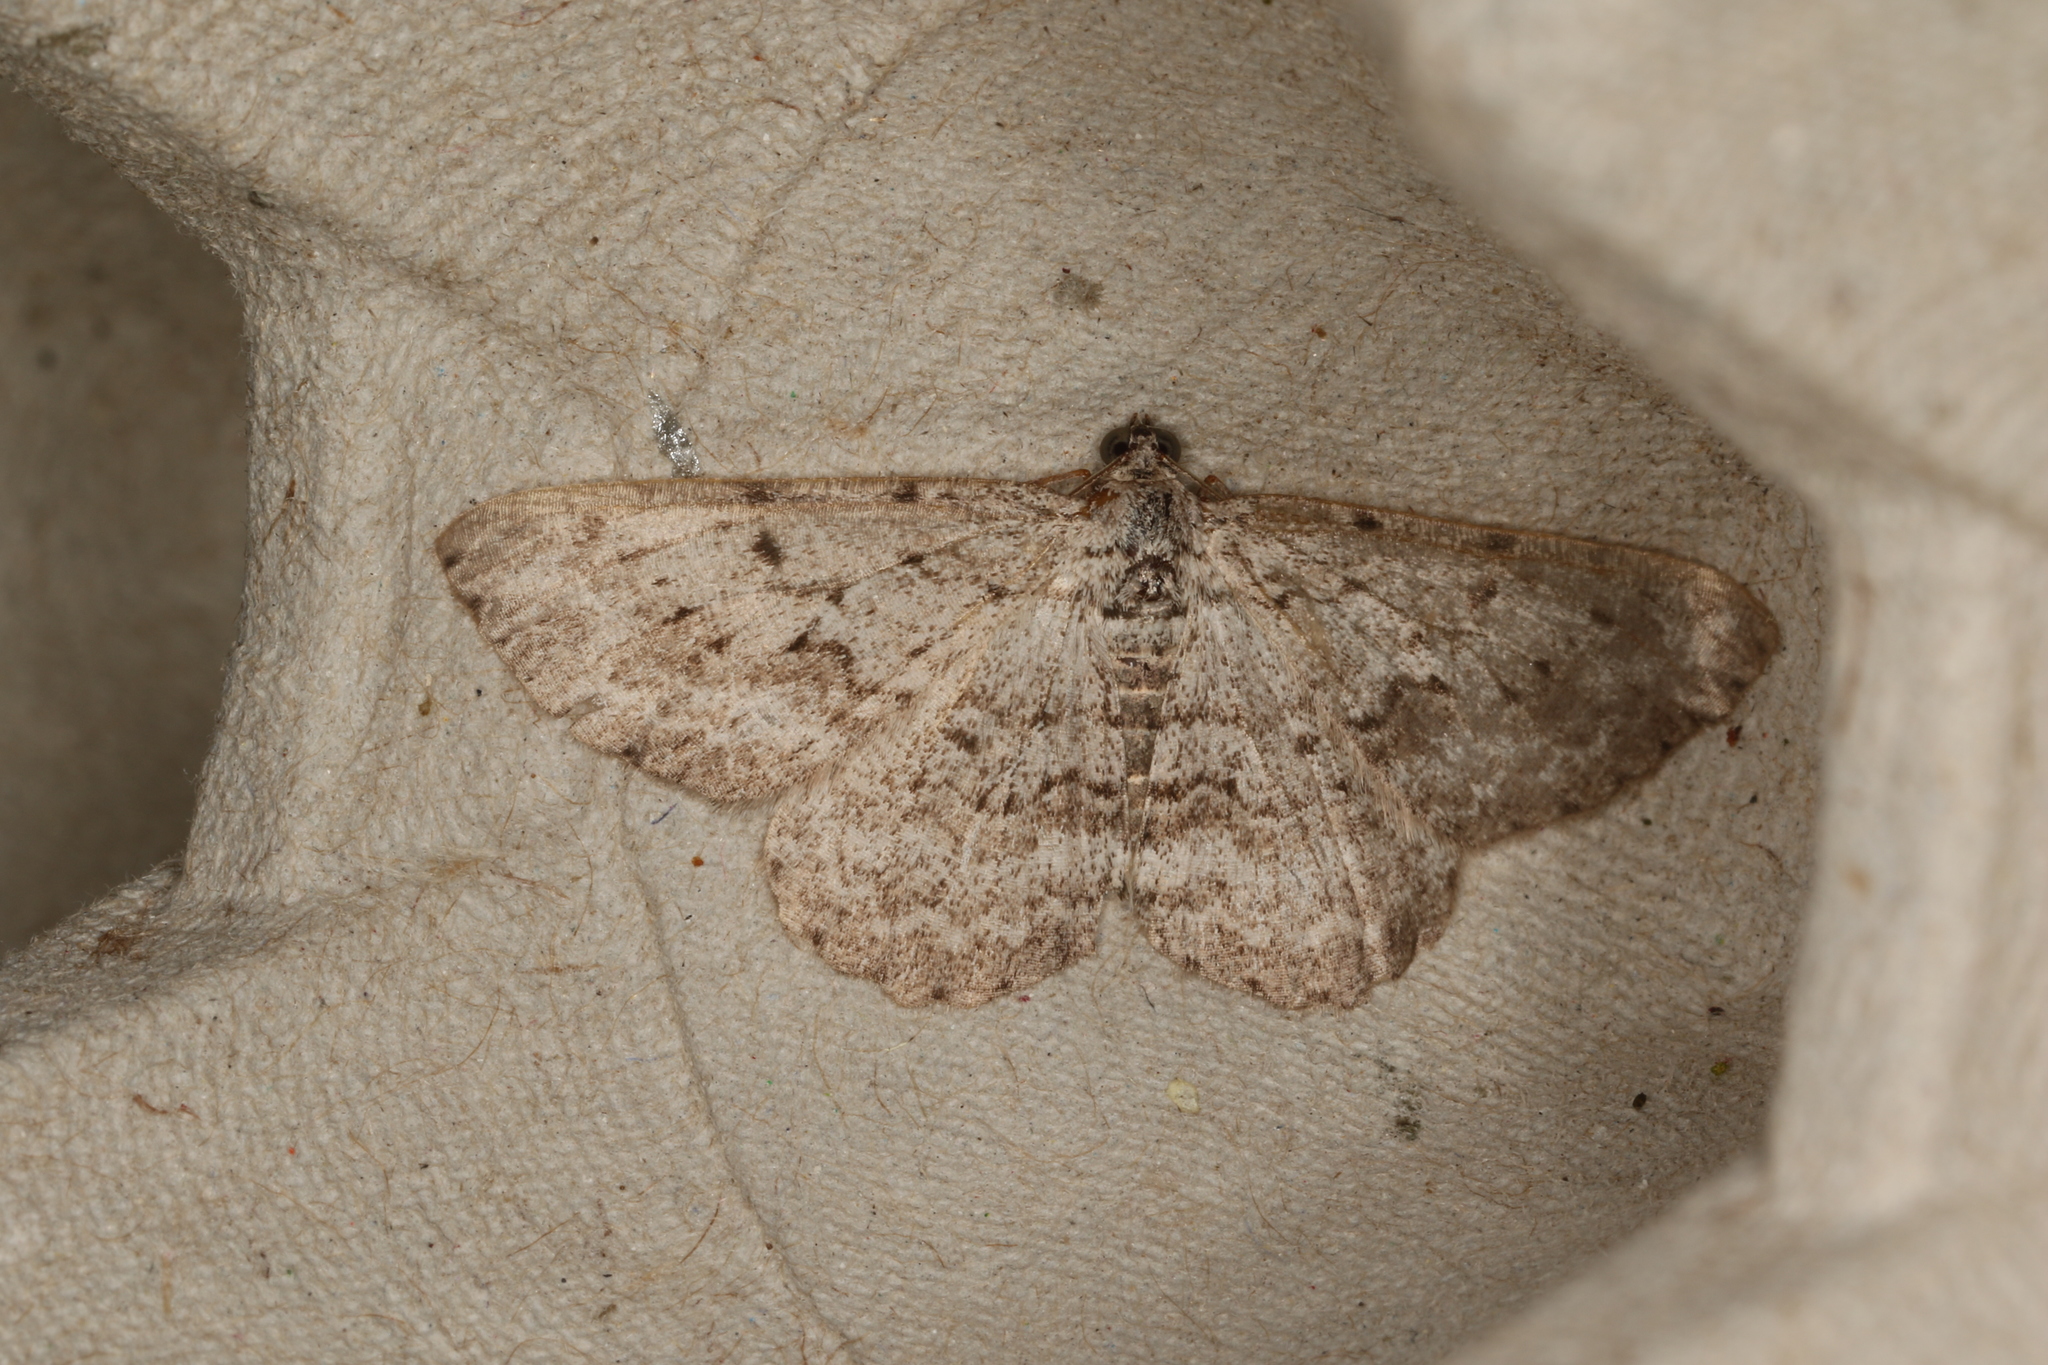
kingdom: Animalia
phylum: Arthropoda
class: Insecta
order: Lepidoptera
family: Geometridae
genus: Psilosticha
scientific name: Psilosticha absorpta
